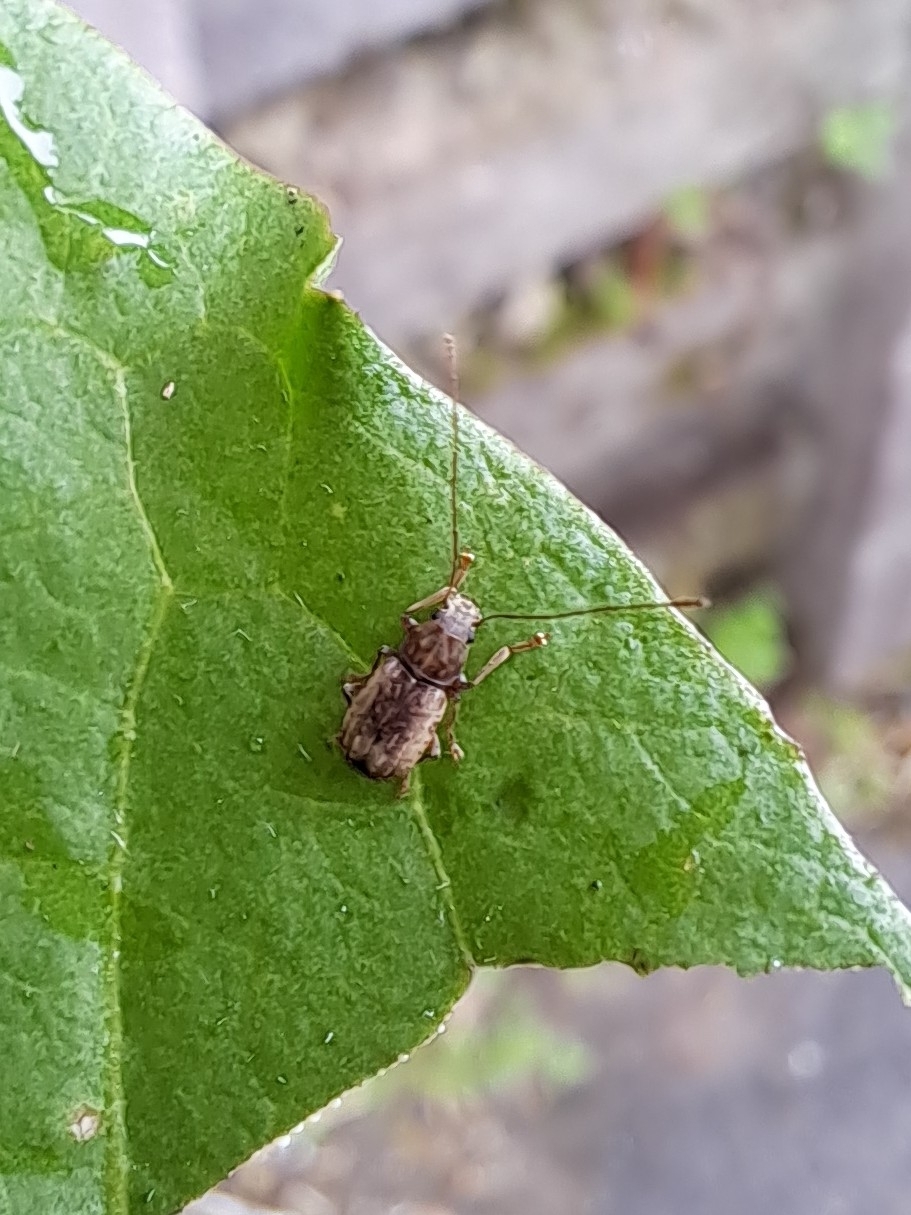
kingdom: Animalia
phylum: Arthropoda
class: Insecta
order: Coleoptera
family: Anthribidae
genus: Arecopais
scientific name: Arecopais spectabilis
